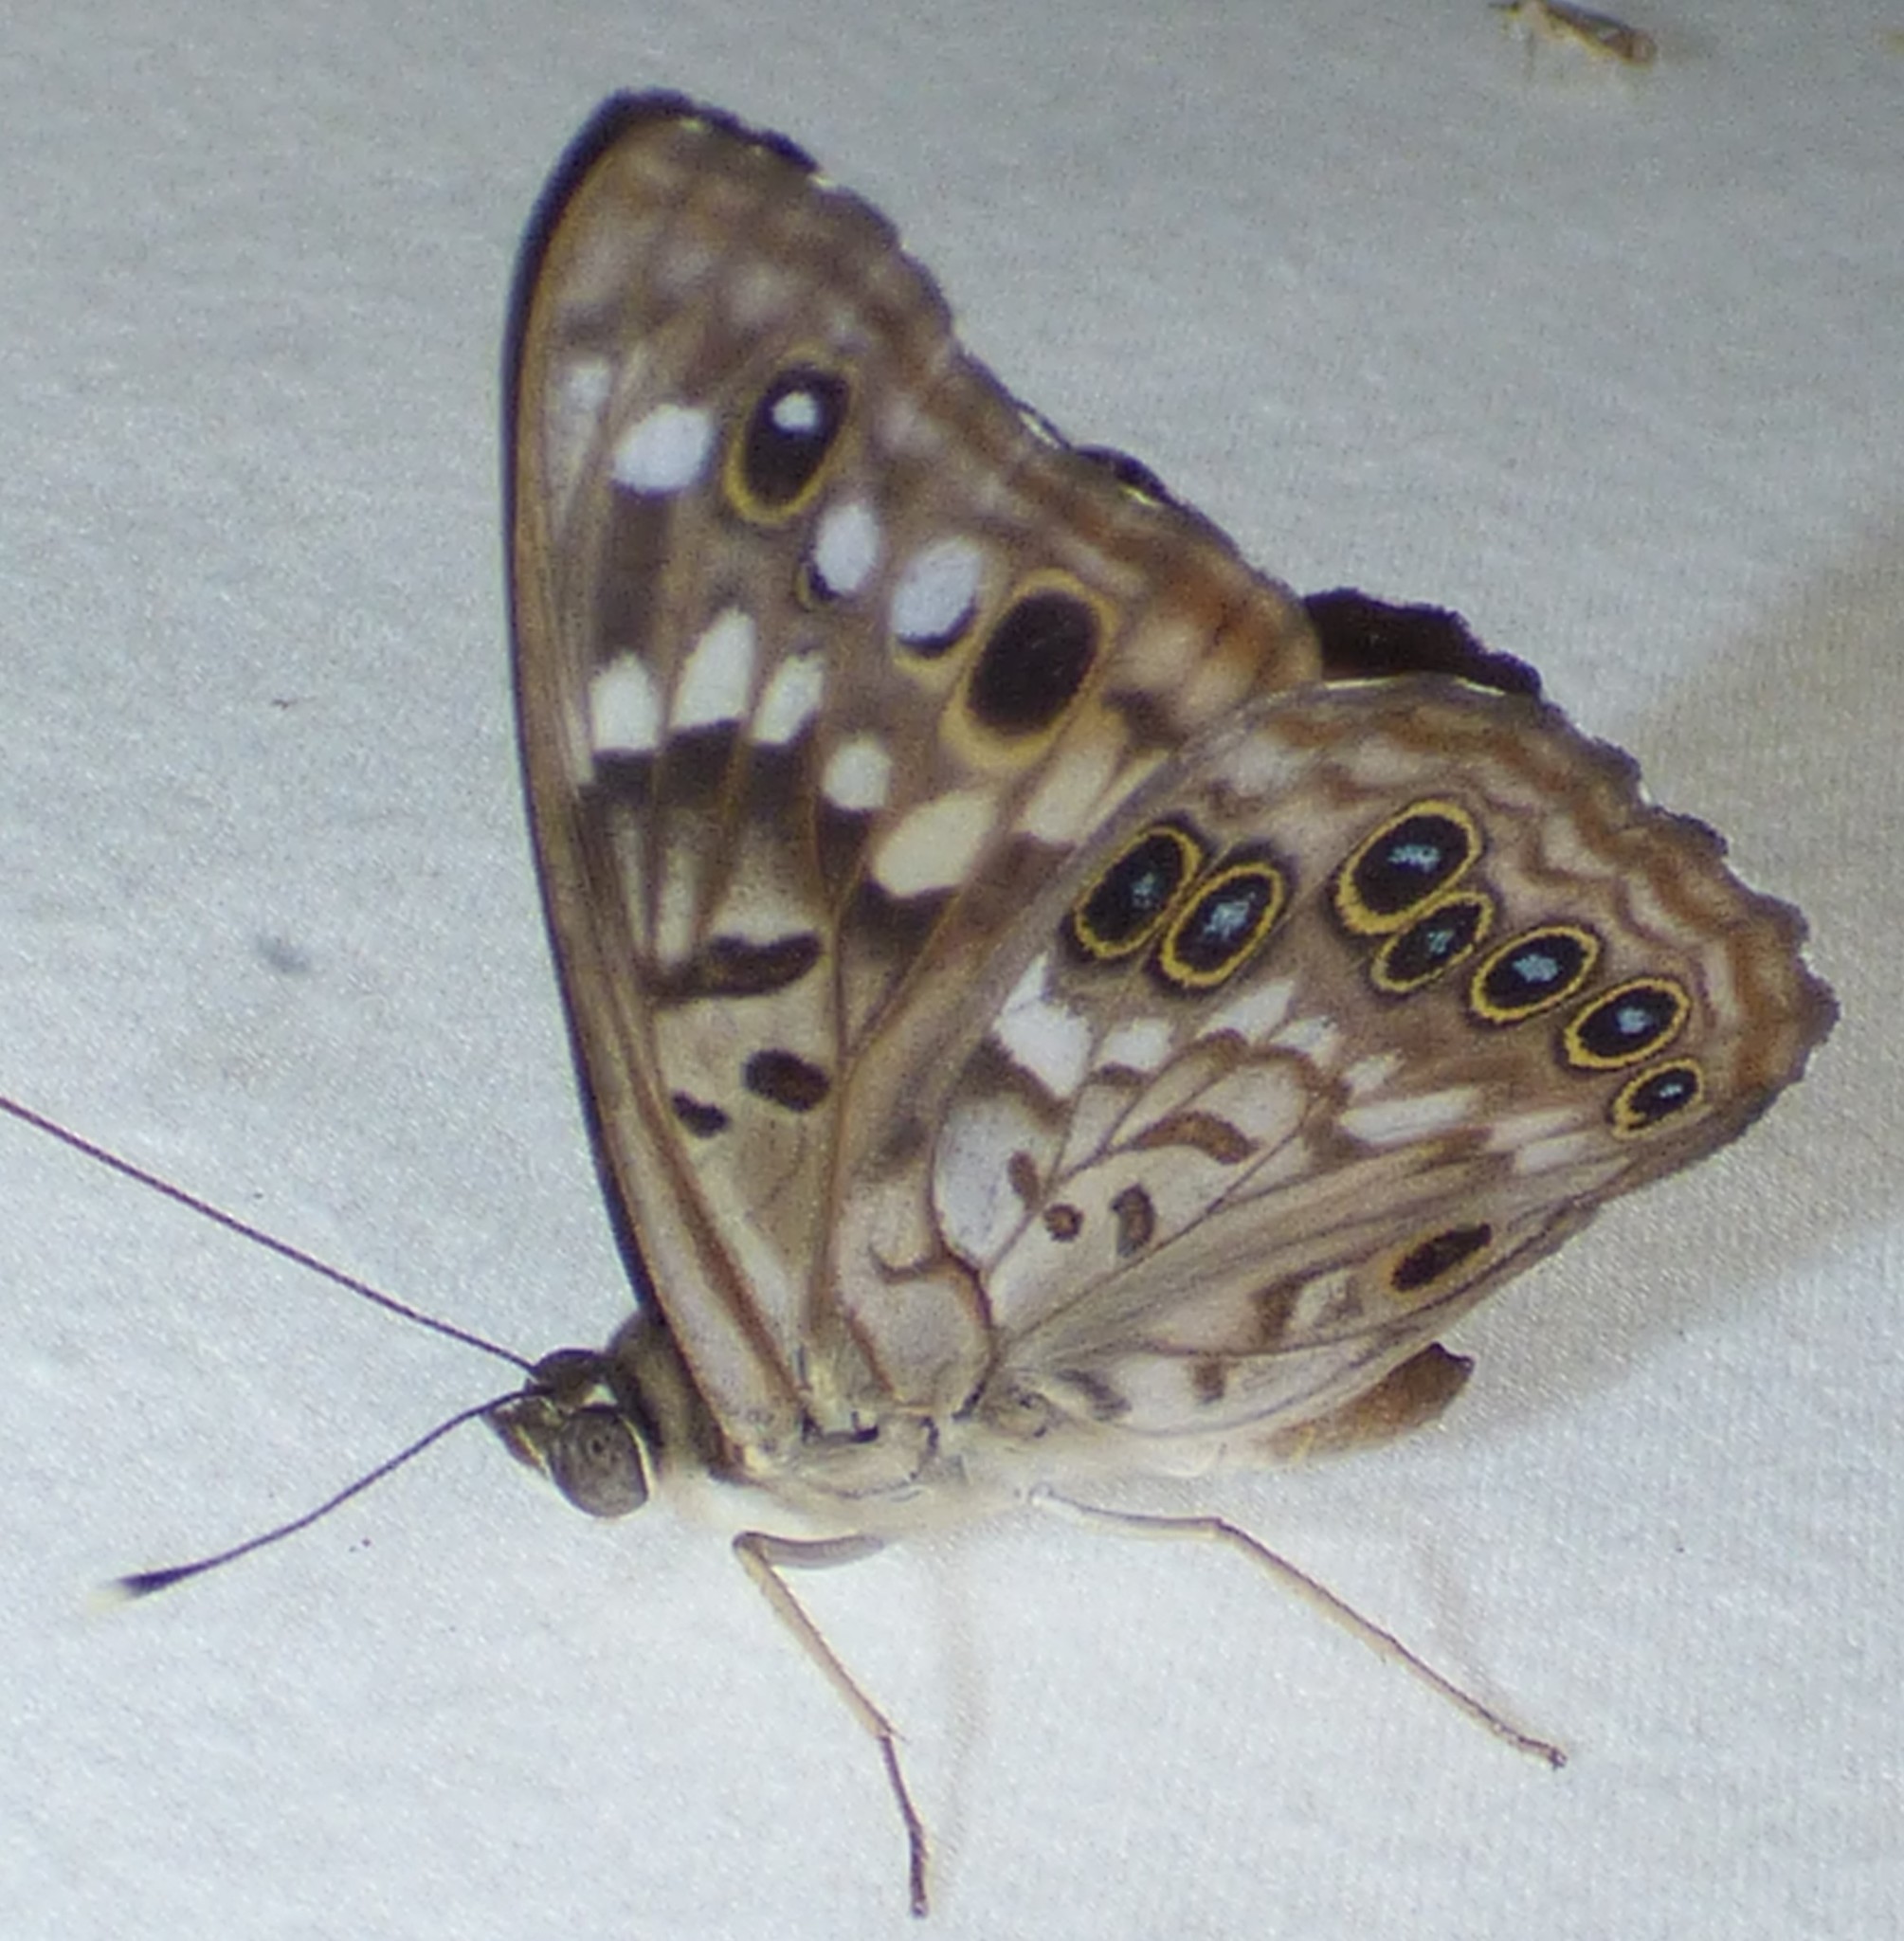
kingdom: Animalia
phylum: Arthropoda
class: Insecta
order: Lepidoptera
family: Nymphalidae
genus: Asterocampa
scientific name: Asterocampa celtis
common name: Hackberry emperor
